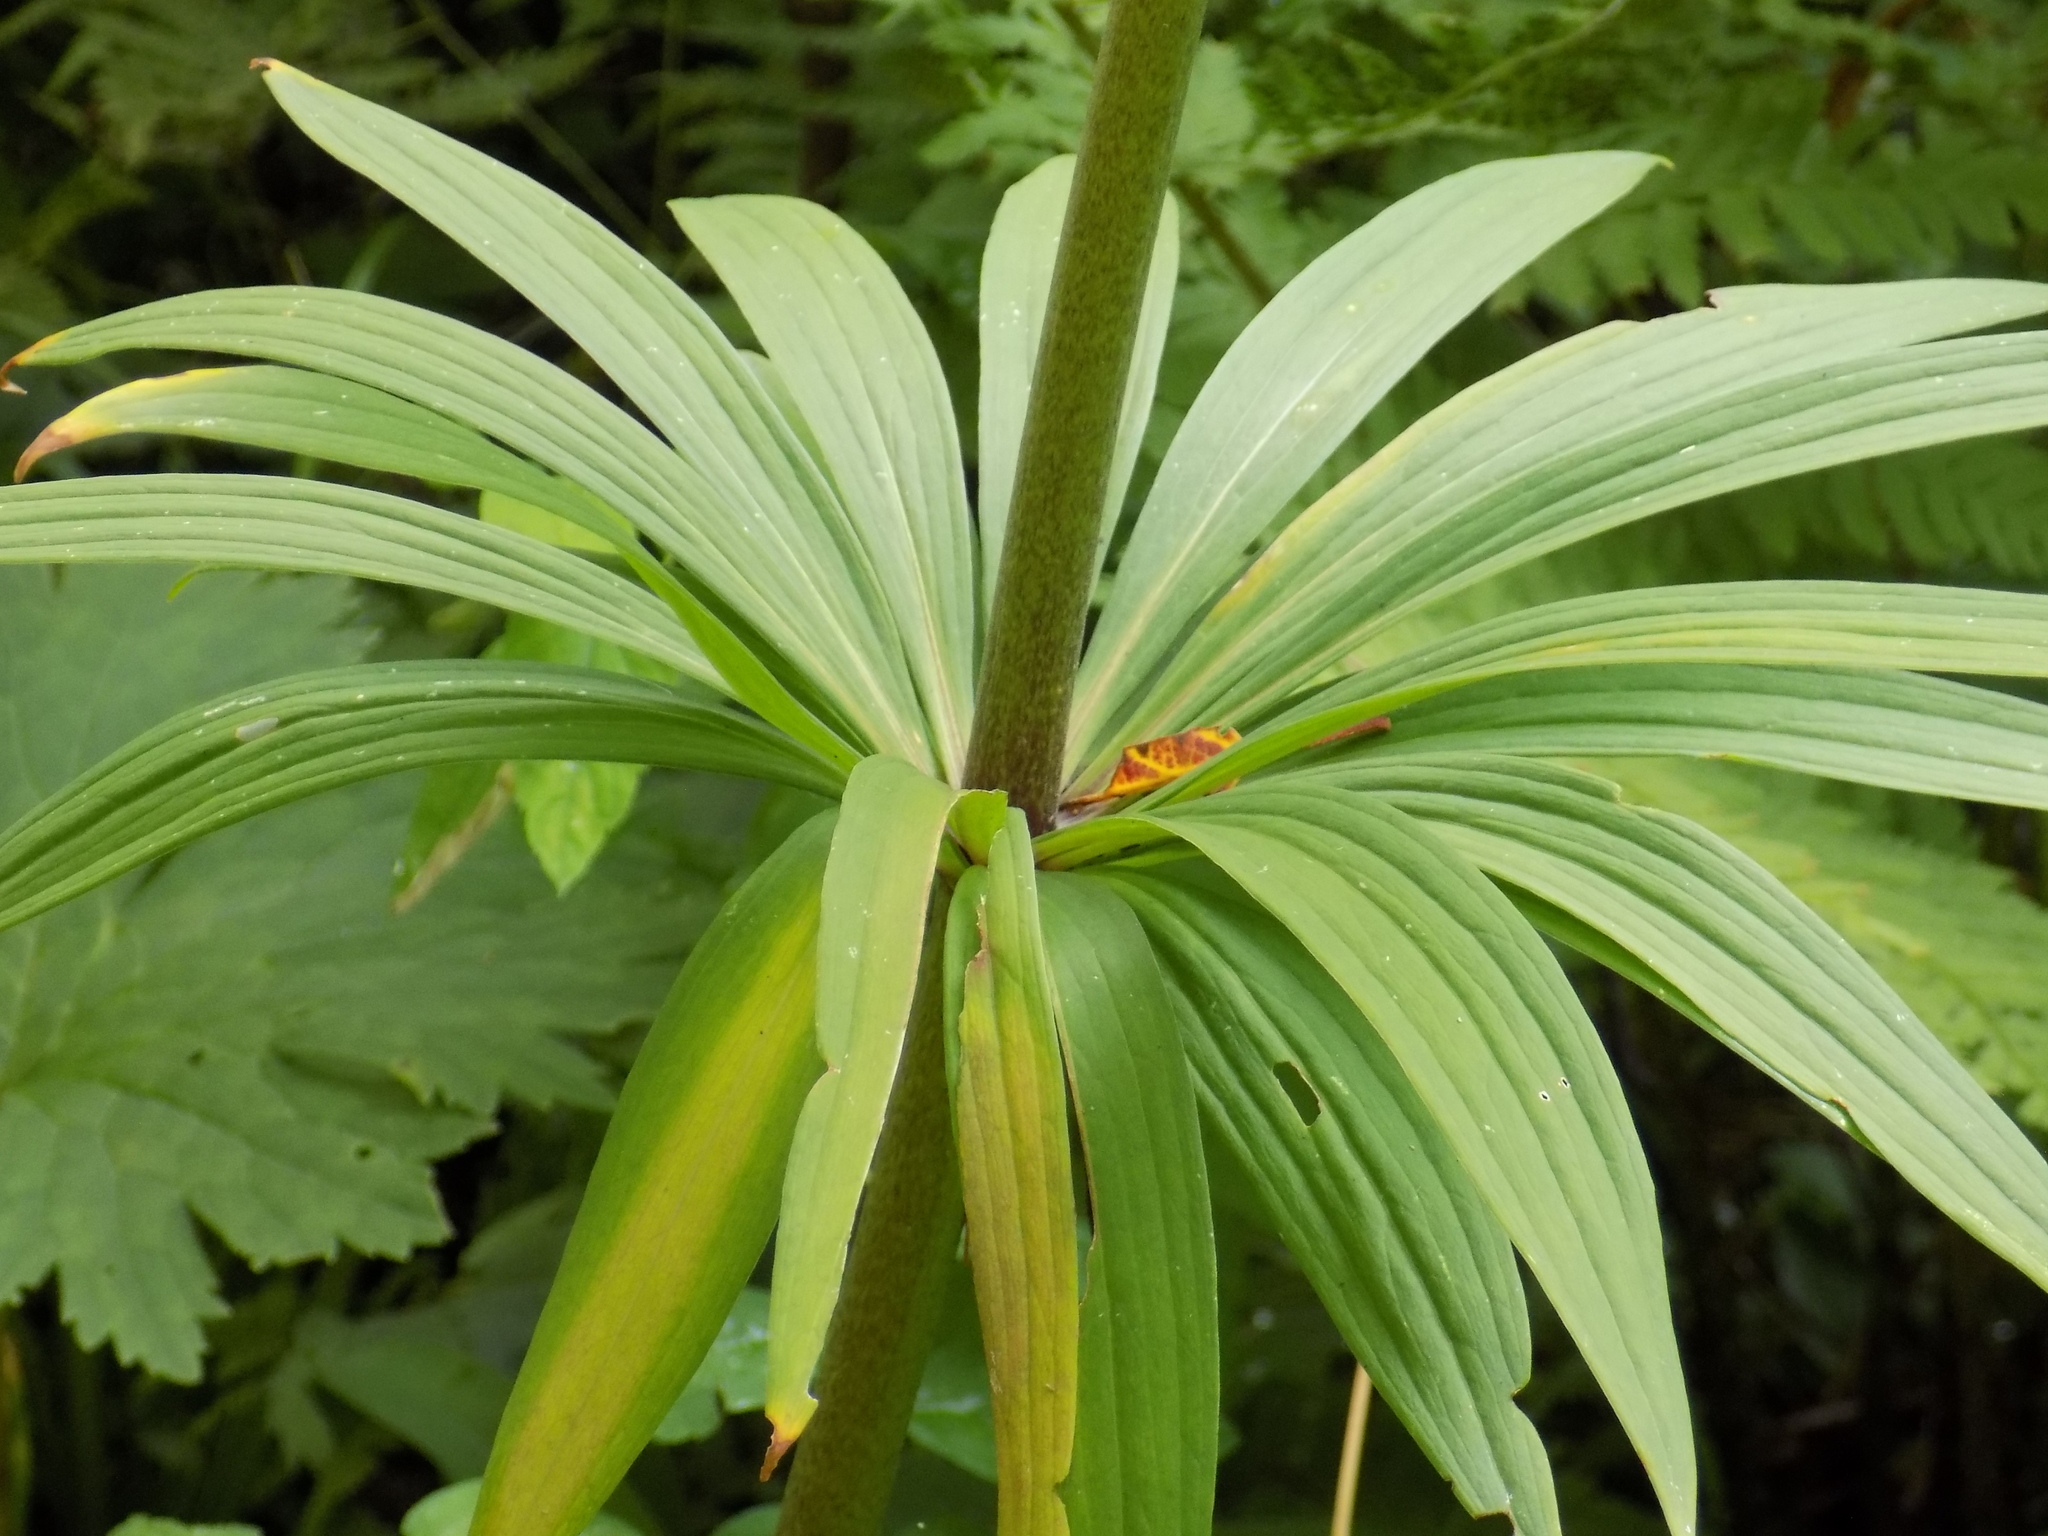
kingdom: Plantae
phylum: Tracheophyta
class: Liliopsida
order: Liliales
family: Liliaceae
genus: Lilium
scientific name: Lilium martagon
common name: Martagon lily
